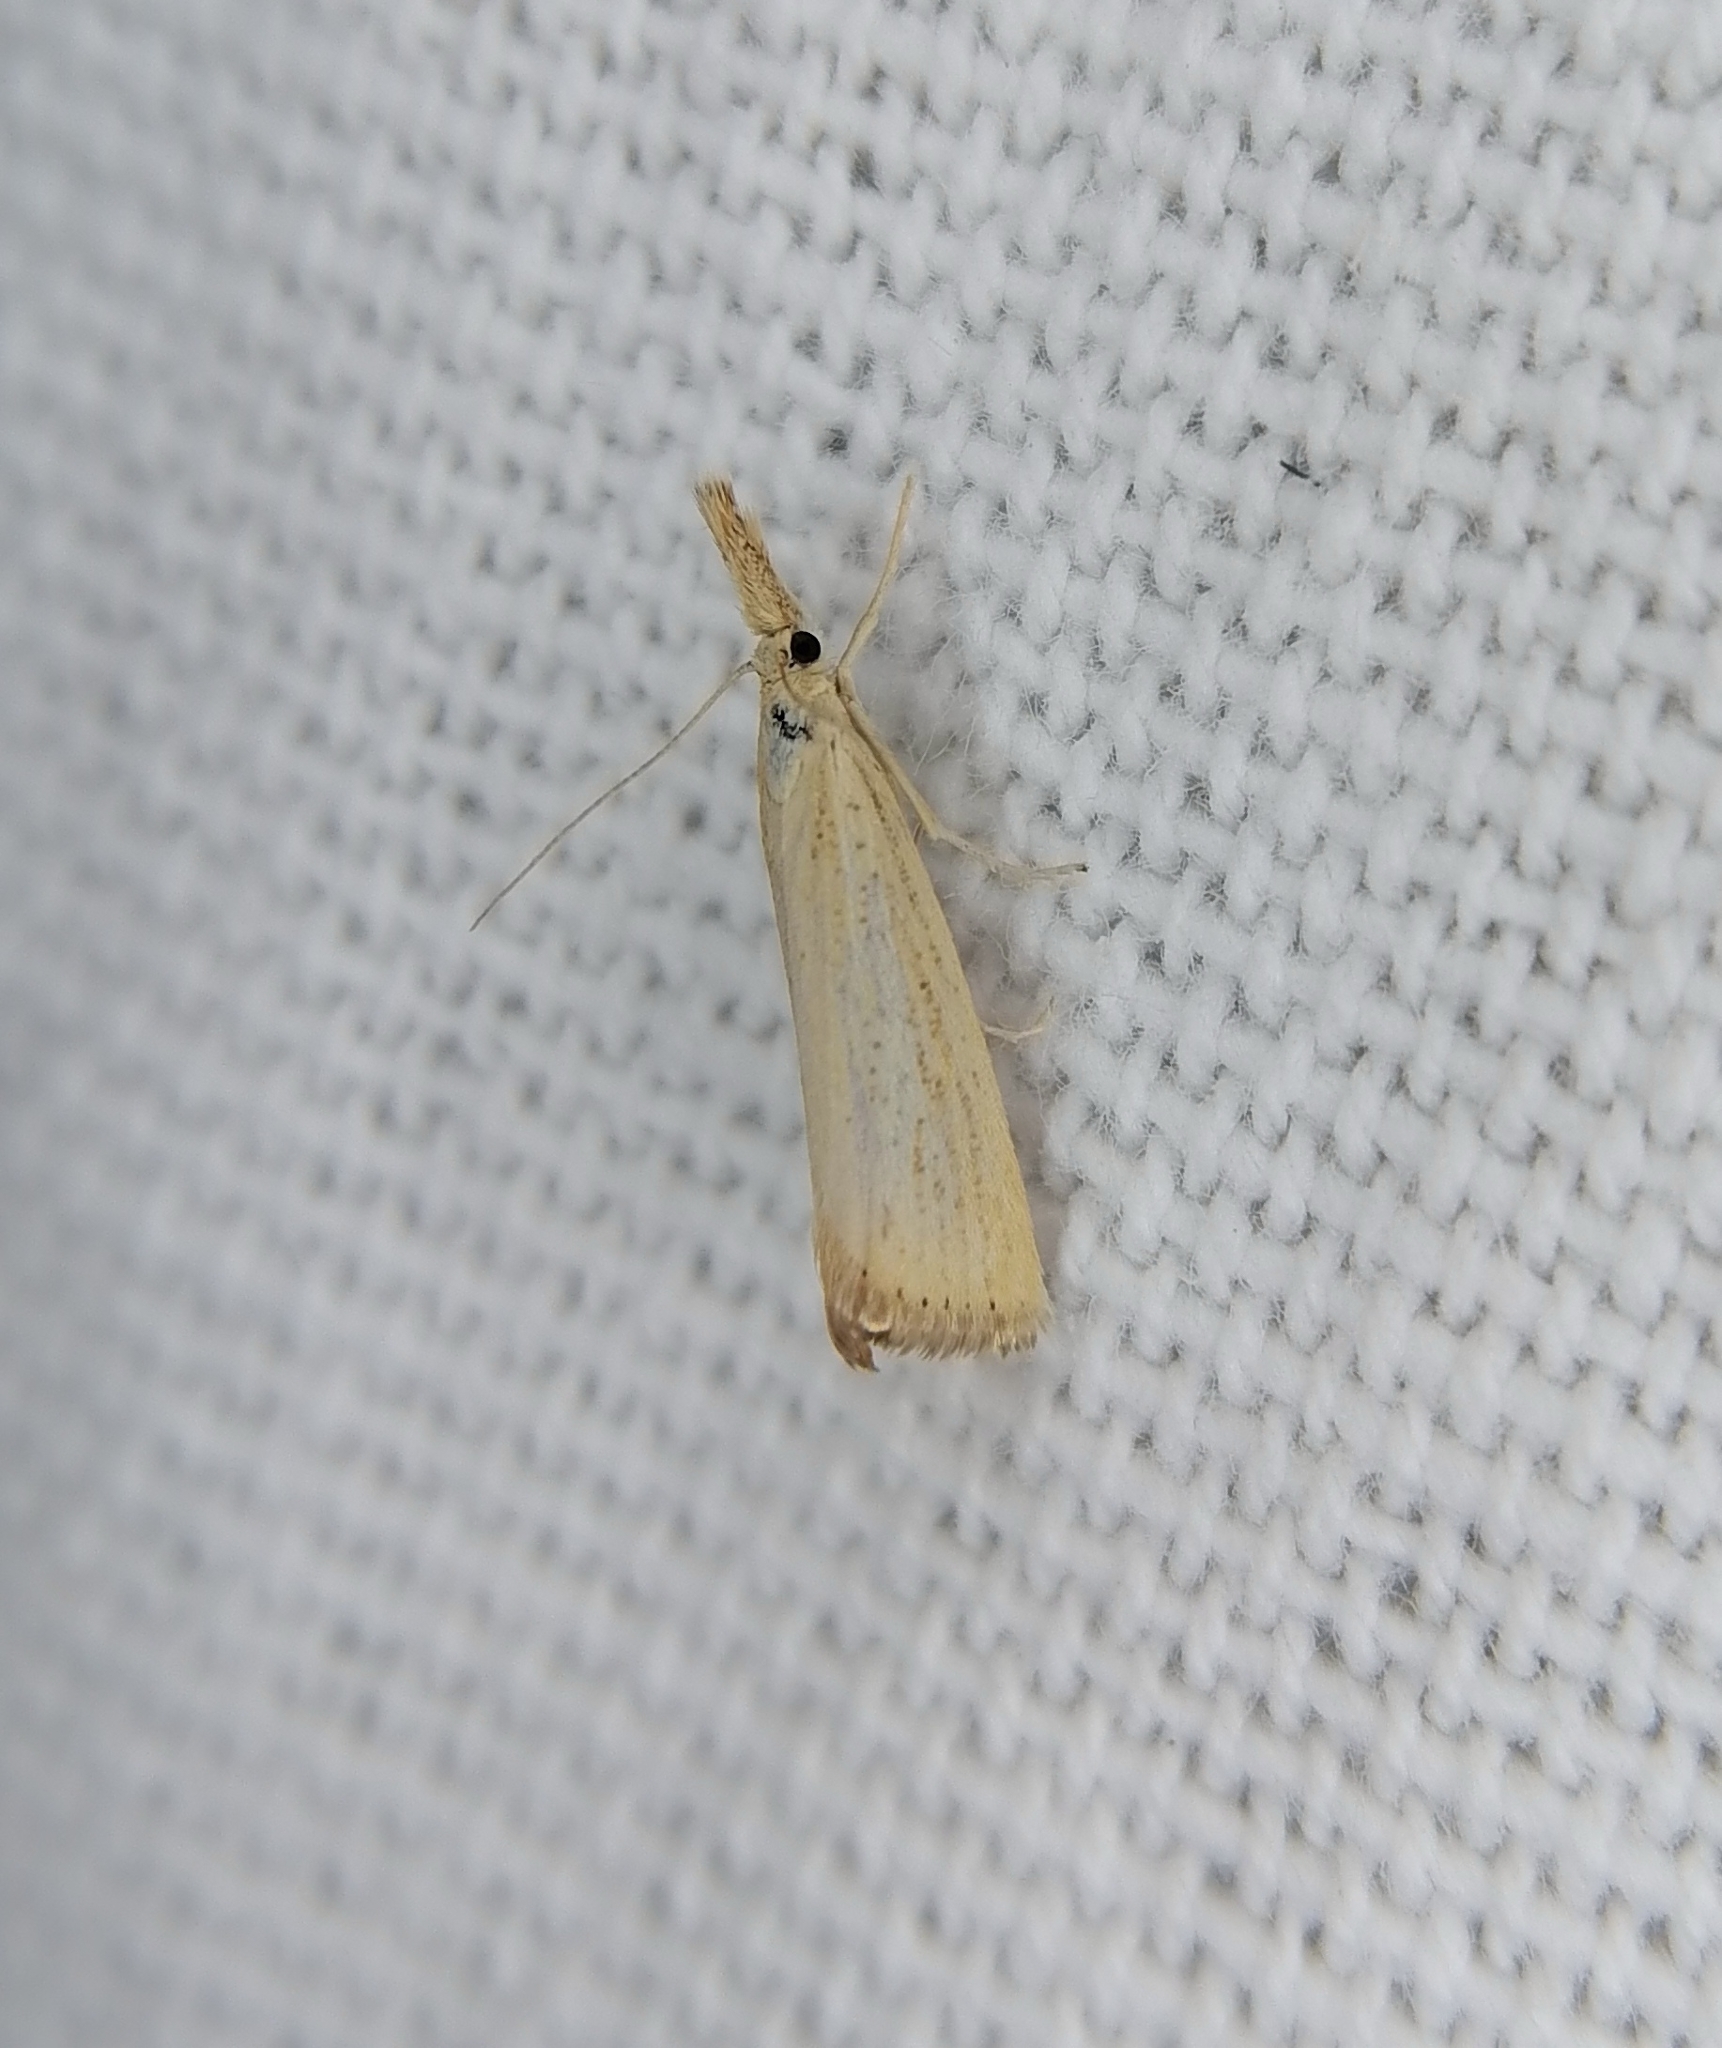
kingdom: Animalia
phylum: Arthropoda
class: Insecta
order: Lepidoptera
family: Crambidae
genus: Agriphila
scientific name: Agriphila straminella
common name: Straw grass-veneer
